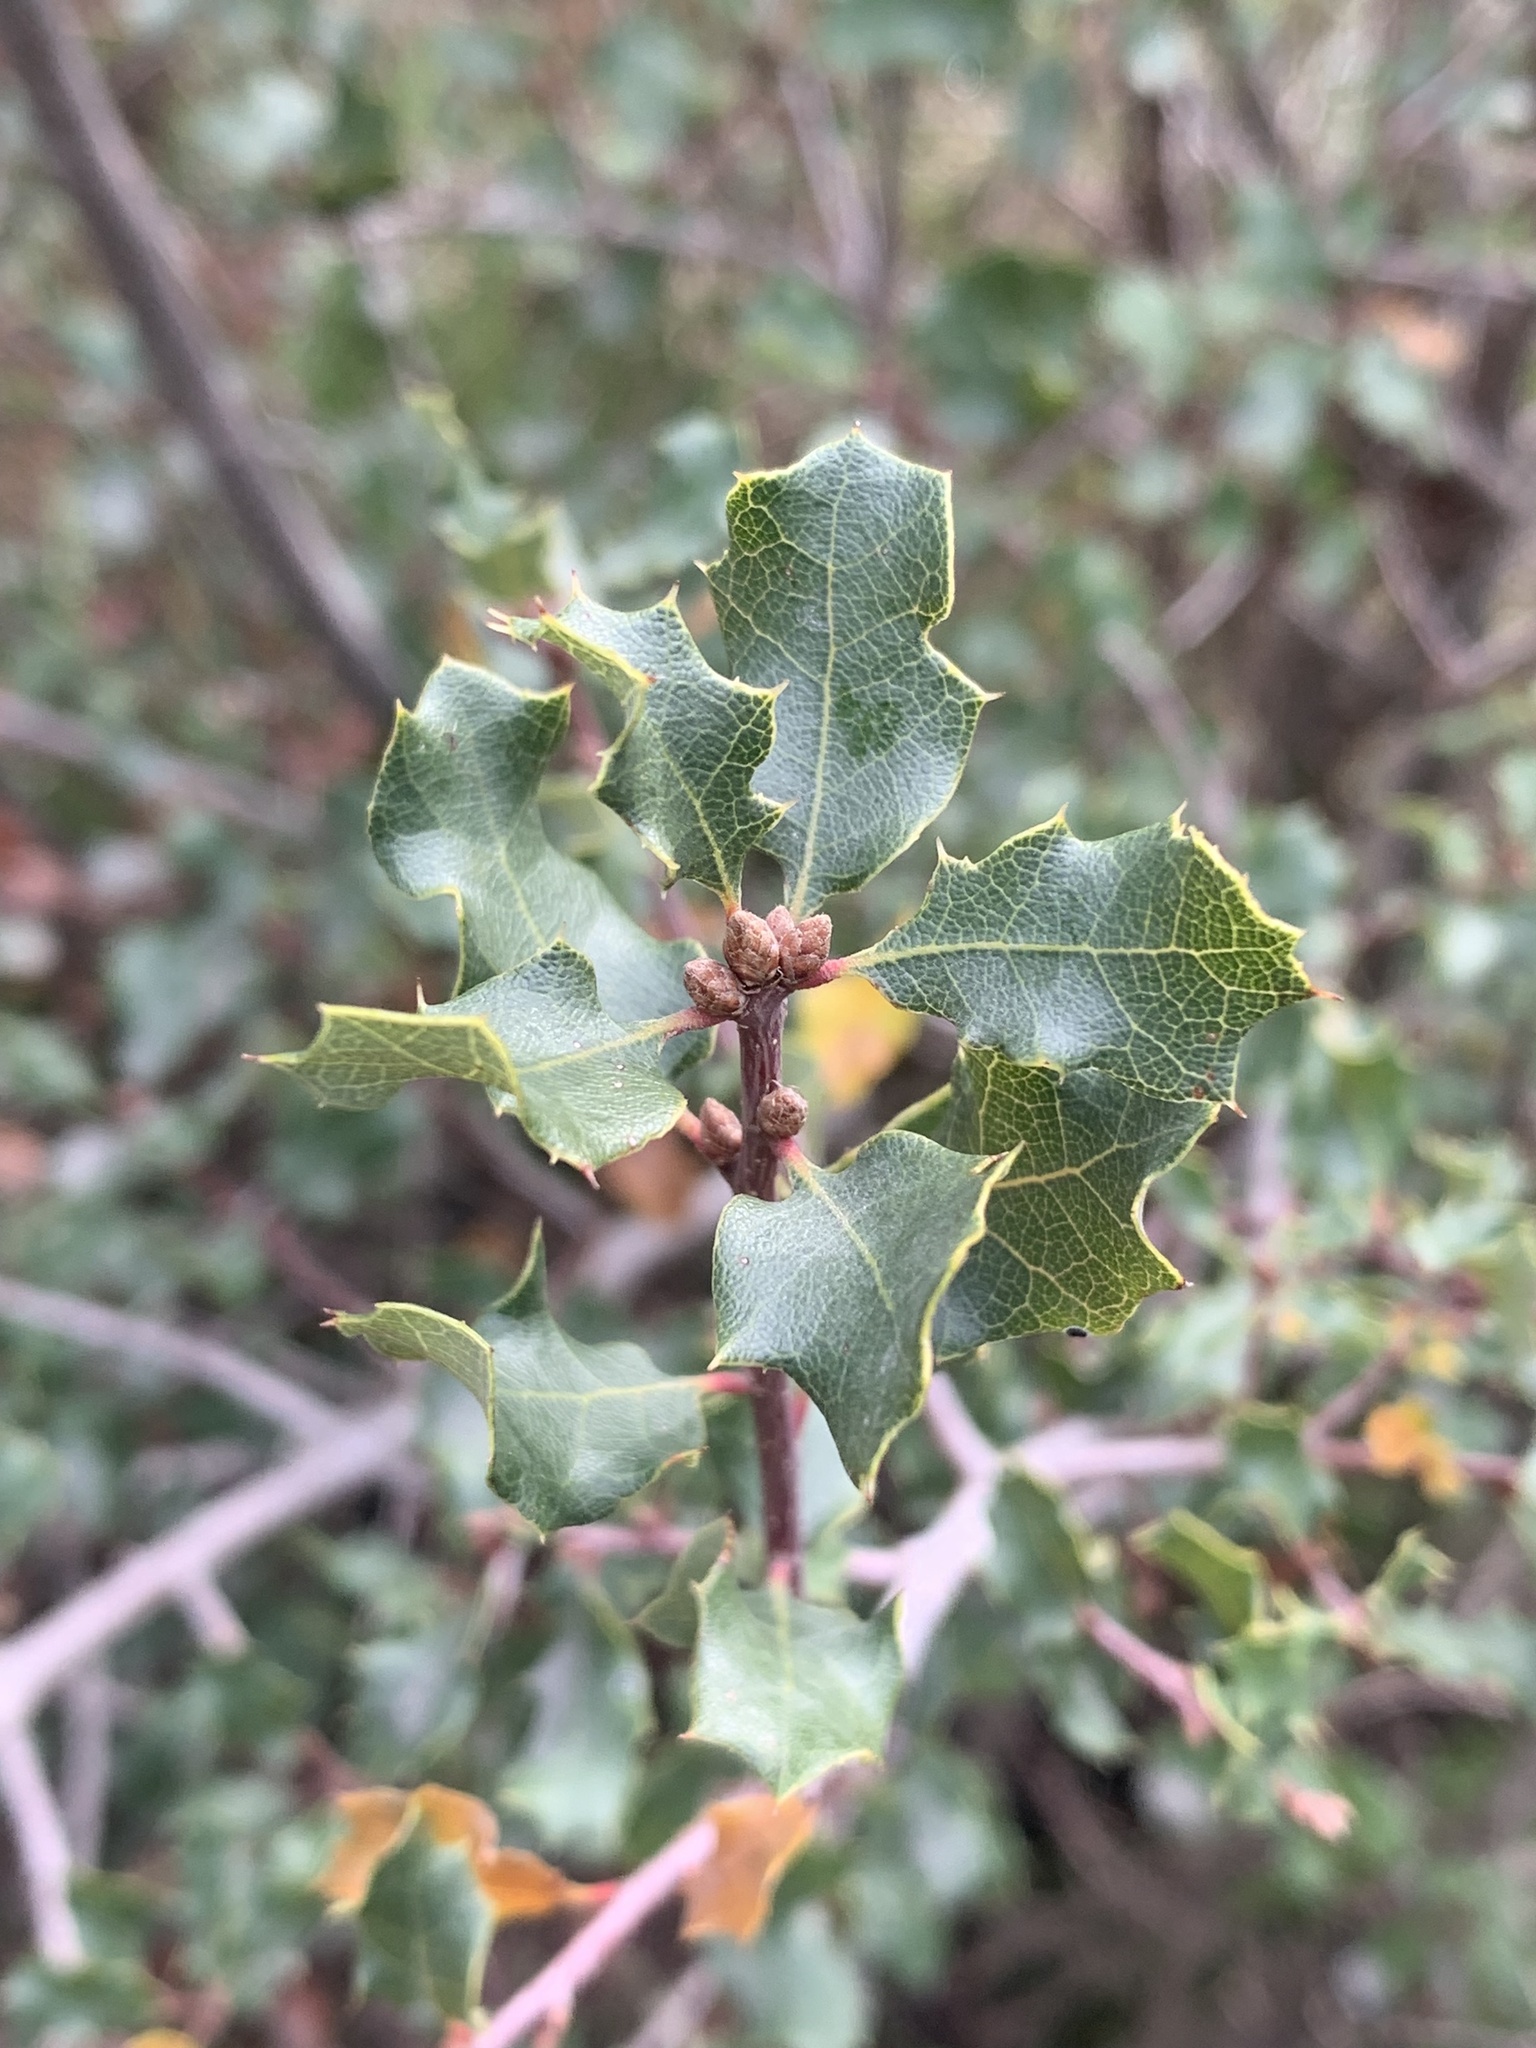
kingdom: Plantae
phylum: Tracheophyta
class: Magnoliopsida
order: Fagales
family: Fagaceae
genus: Quercus
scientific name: Quercus berberidifolia
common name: California scrub oak
